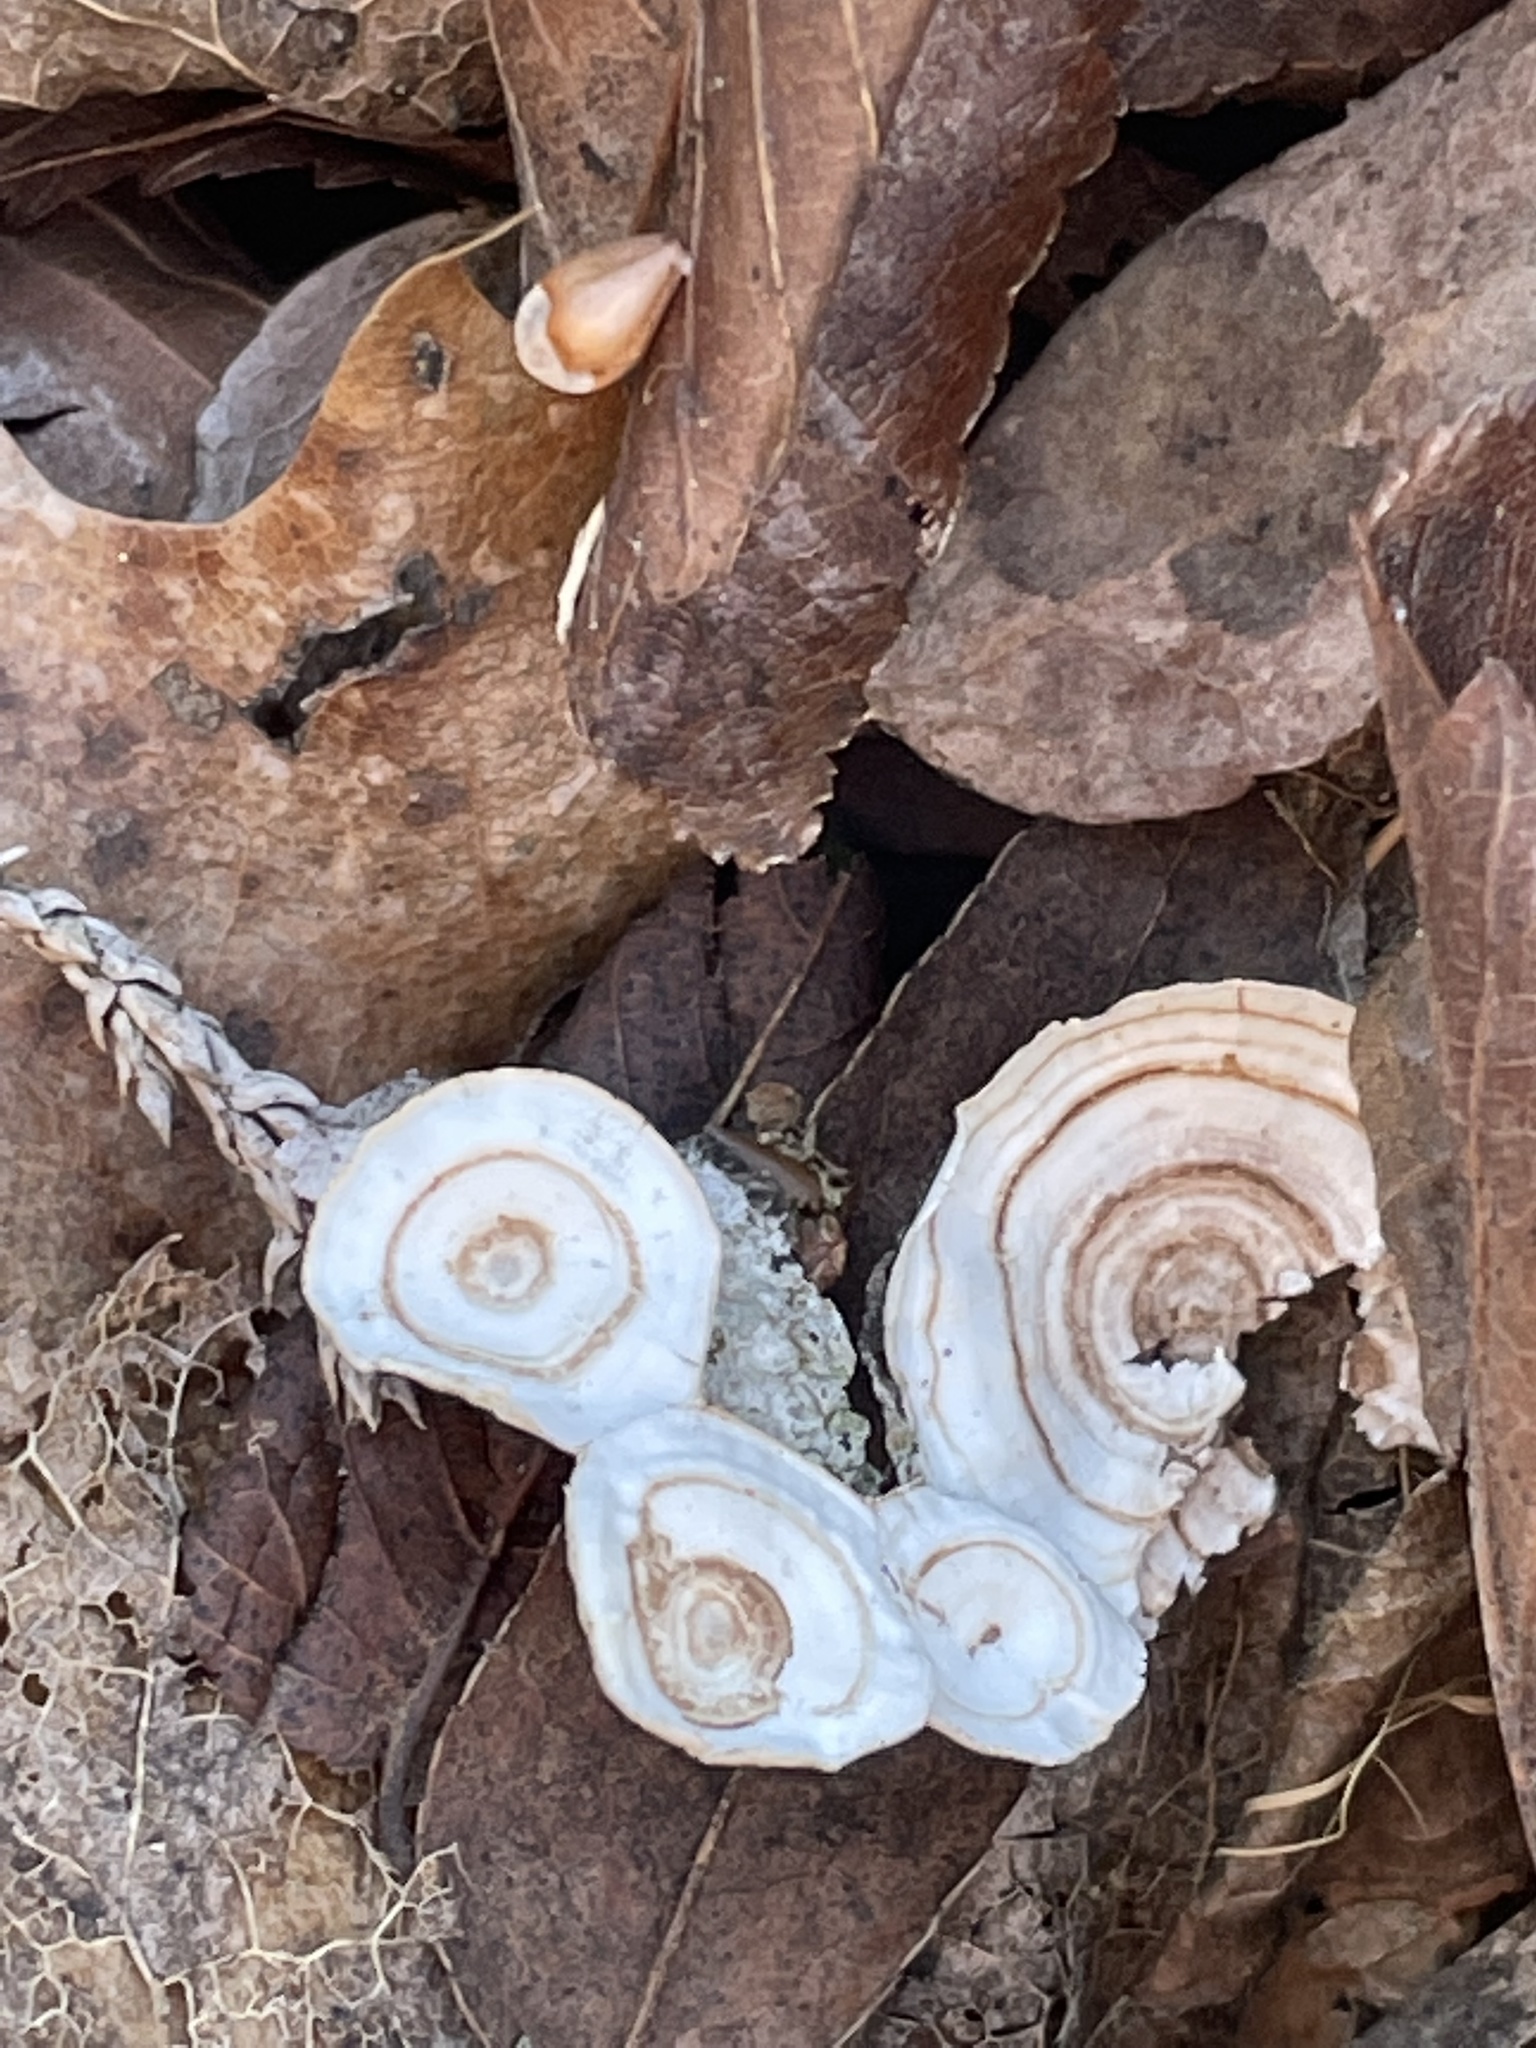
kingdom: Fungi
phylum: Basidiomycota
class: Agaricomycetes
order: Polyporales
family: Polyporaceae
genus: Poronidulus
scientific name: Poronidulus conchifer
